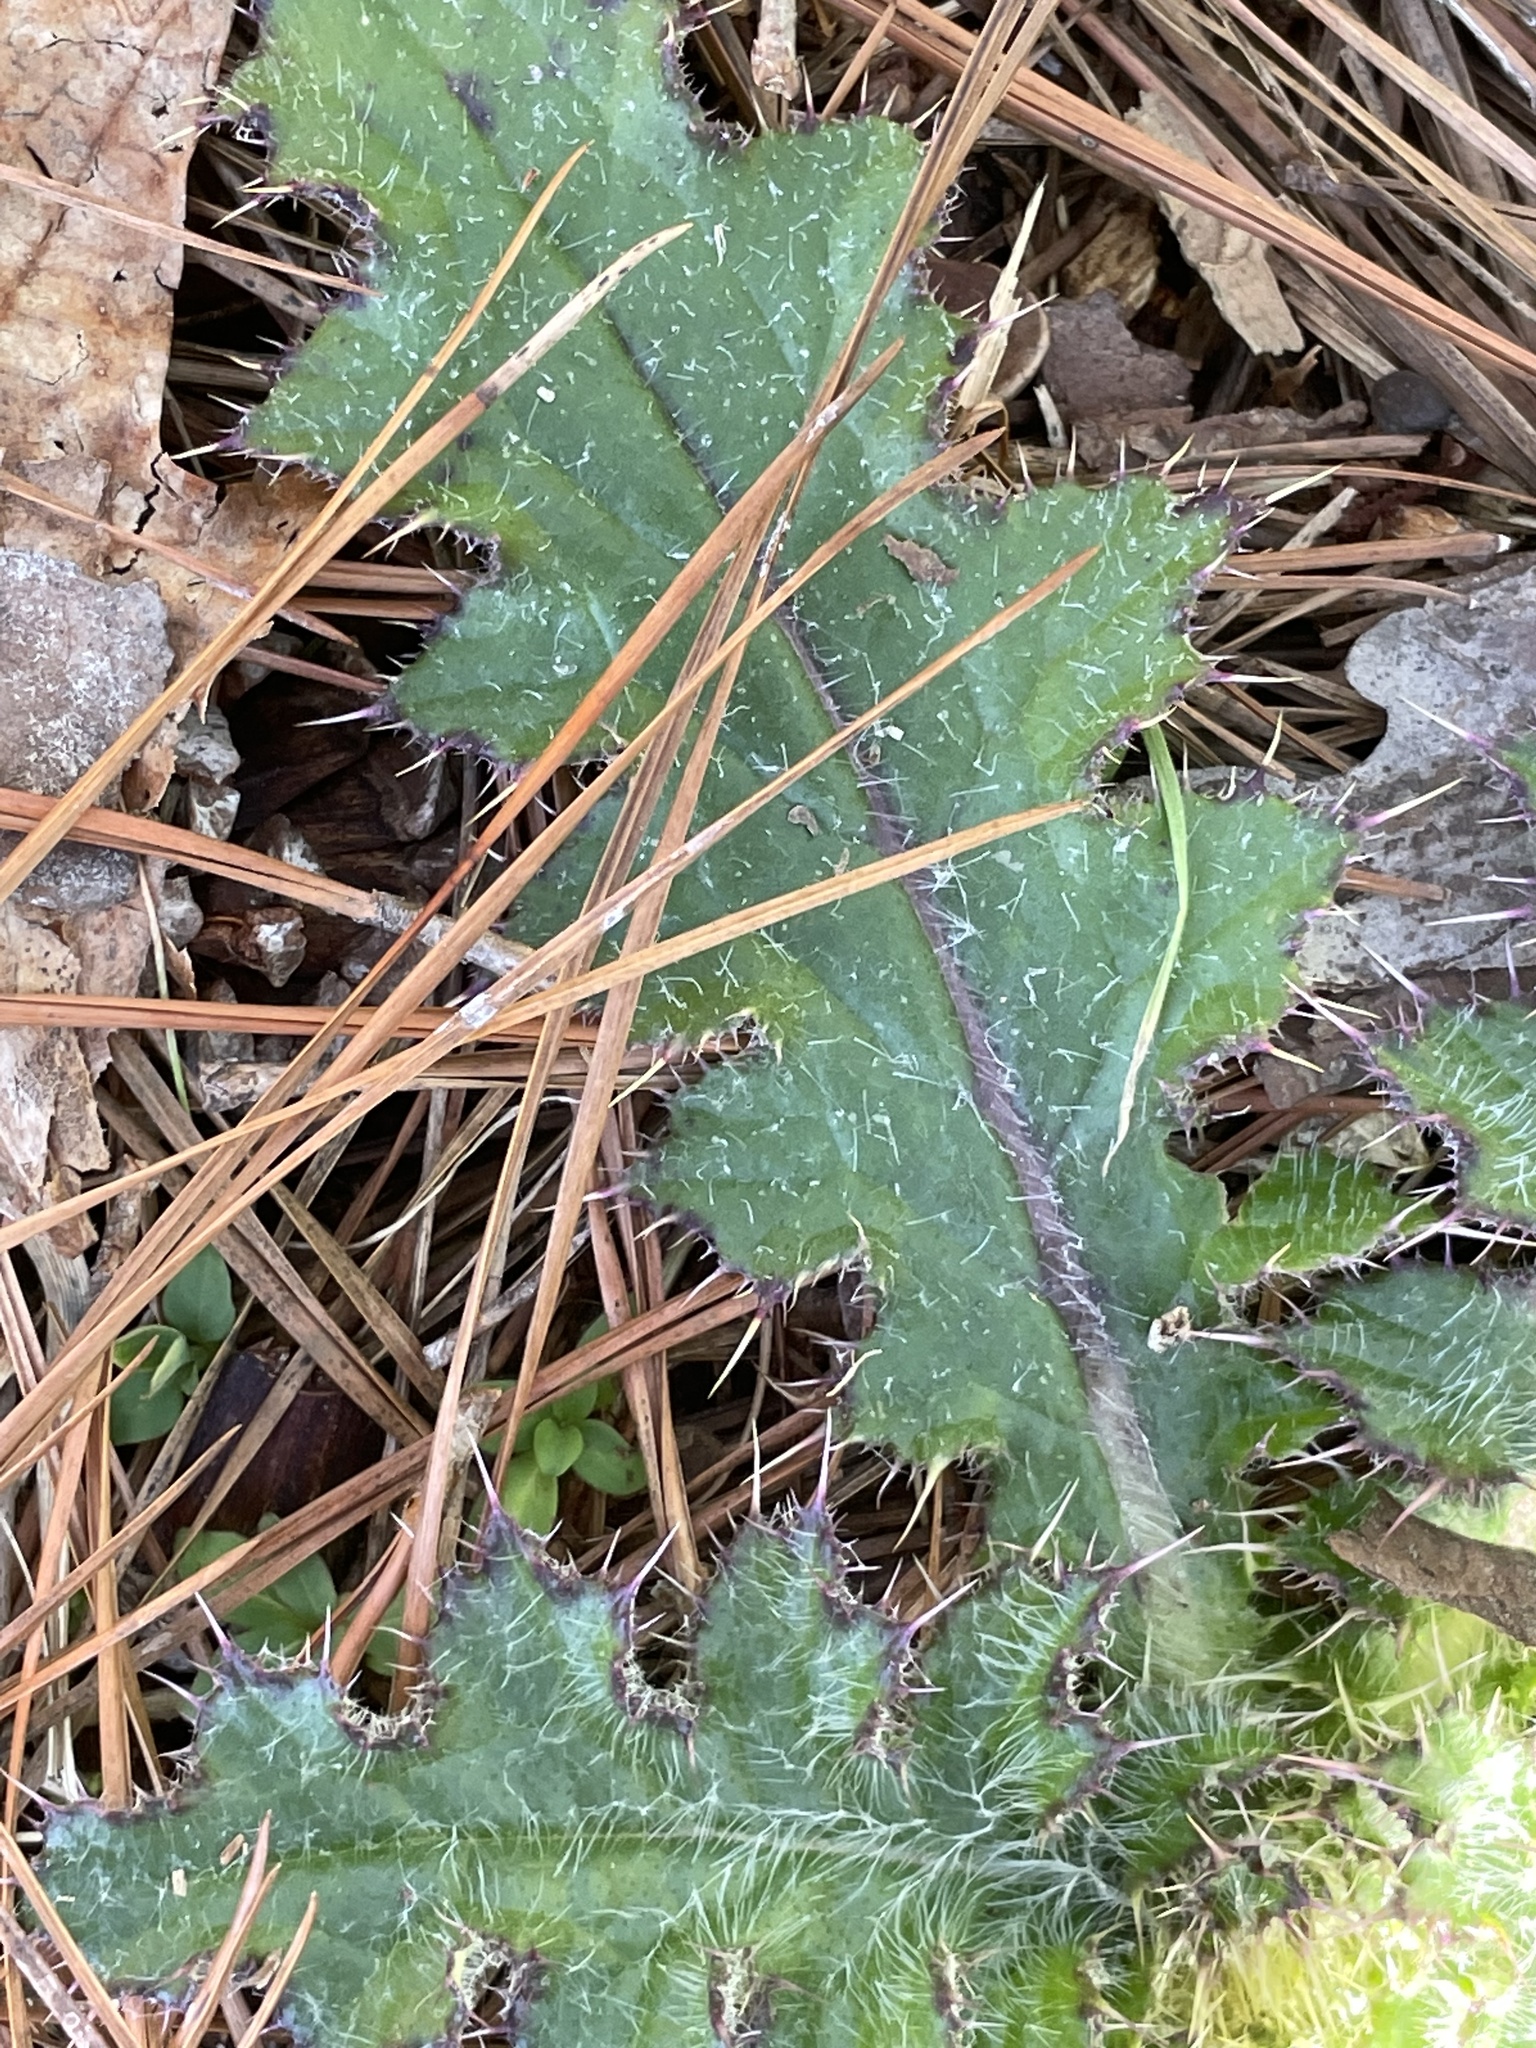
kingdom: Plantae
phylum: Tracheophyta
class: Magnoliopsida
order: Asterales
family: Asteraceae
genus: Cirsium
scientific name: Cirsium horridulum
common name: Bristly thistle
